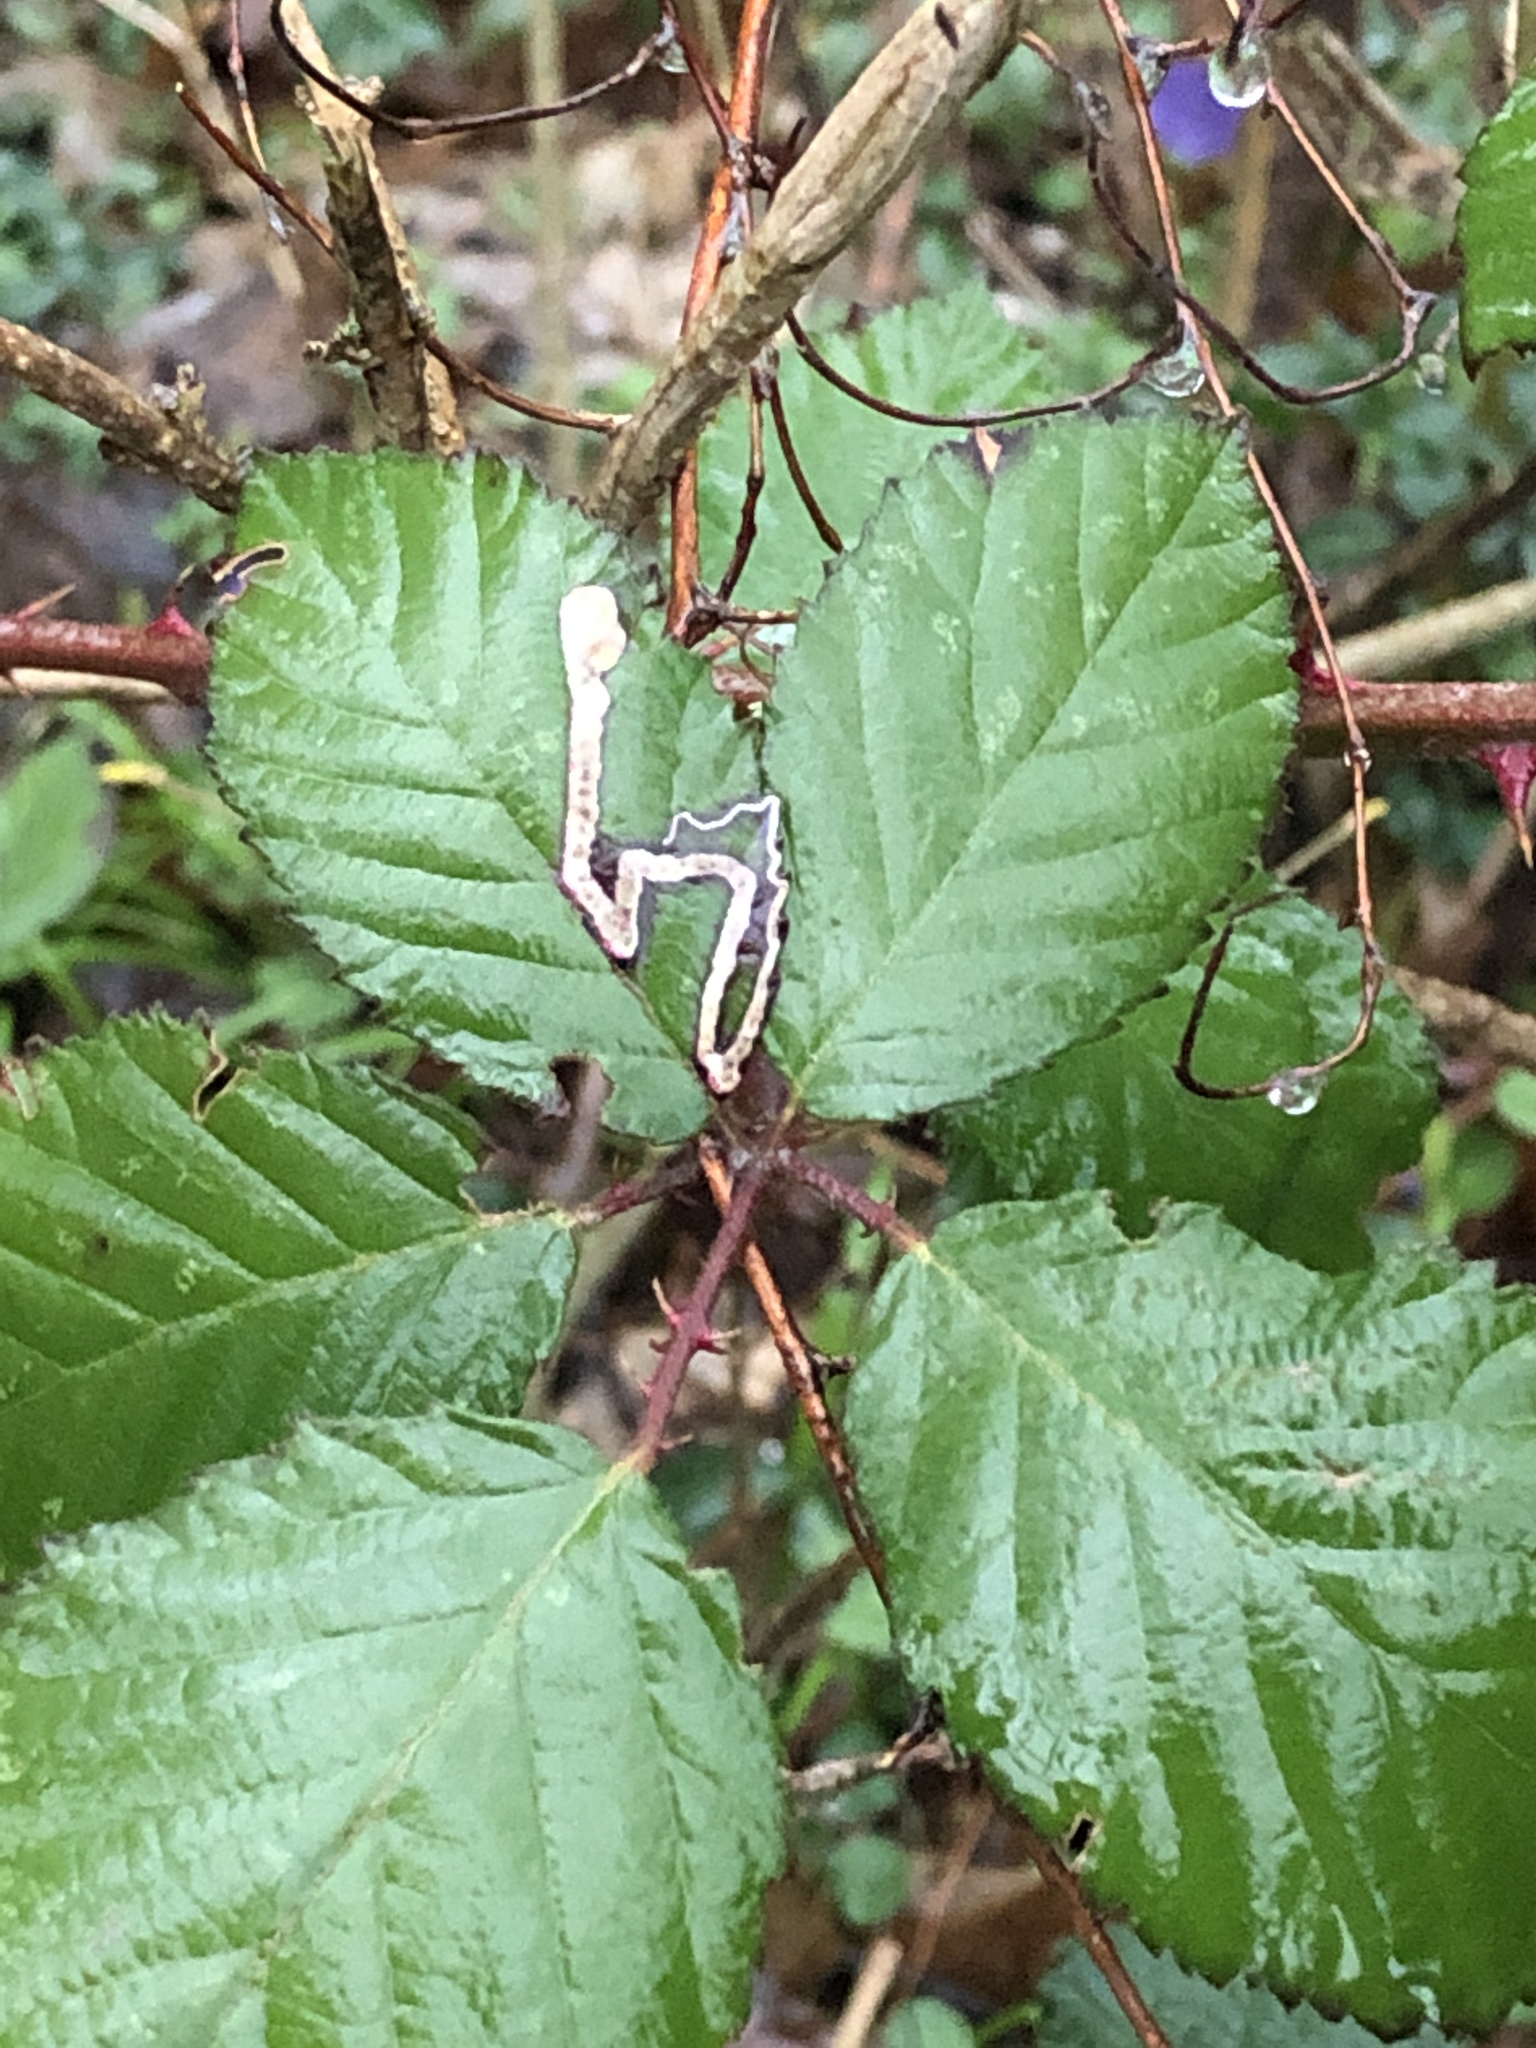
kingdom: Animalia
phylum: Arthropoda
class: Insecta
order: Lepidoptera
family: Nepticulidae
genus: Stigmella
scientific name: Stigmella aurella
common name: Golden pigmy
